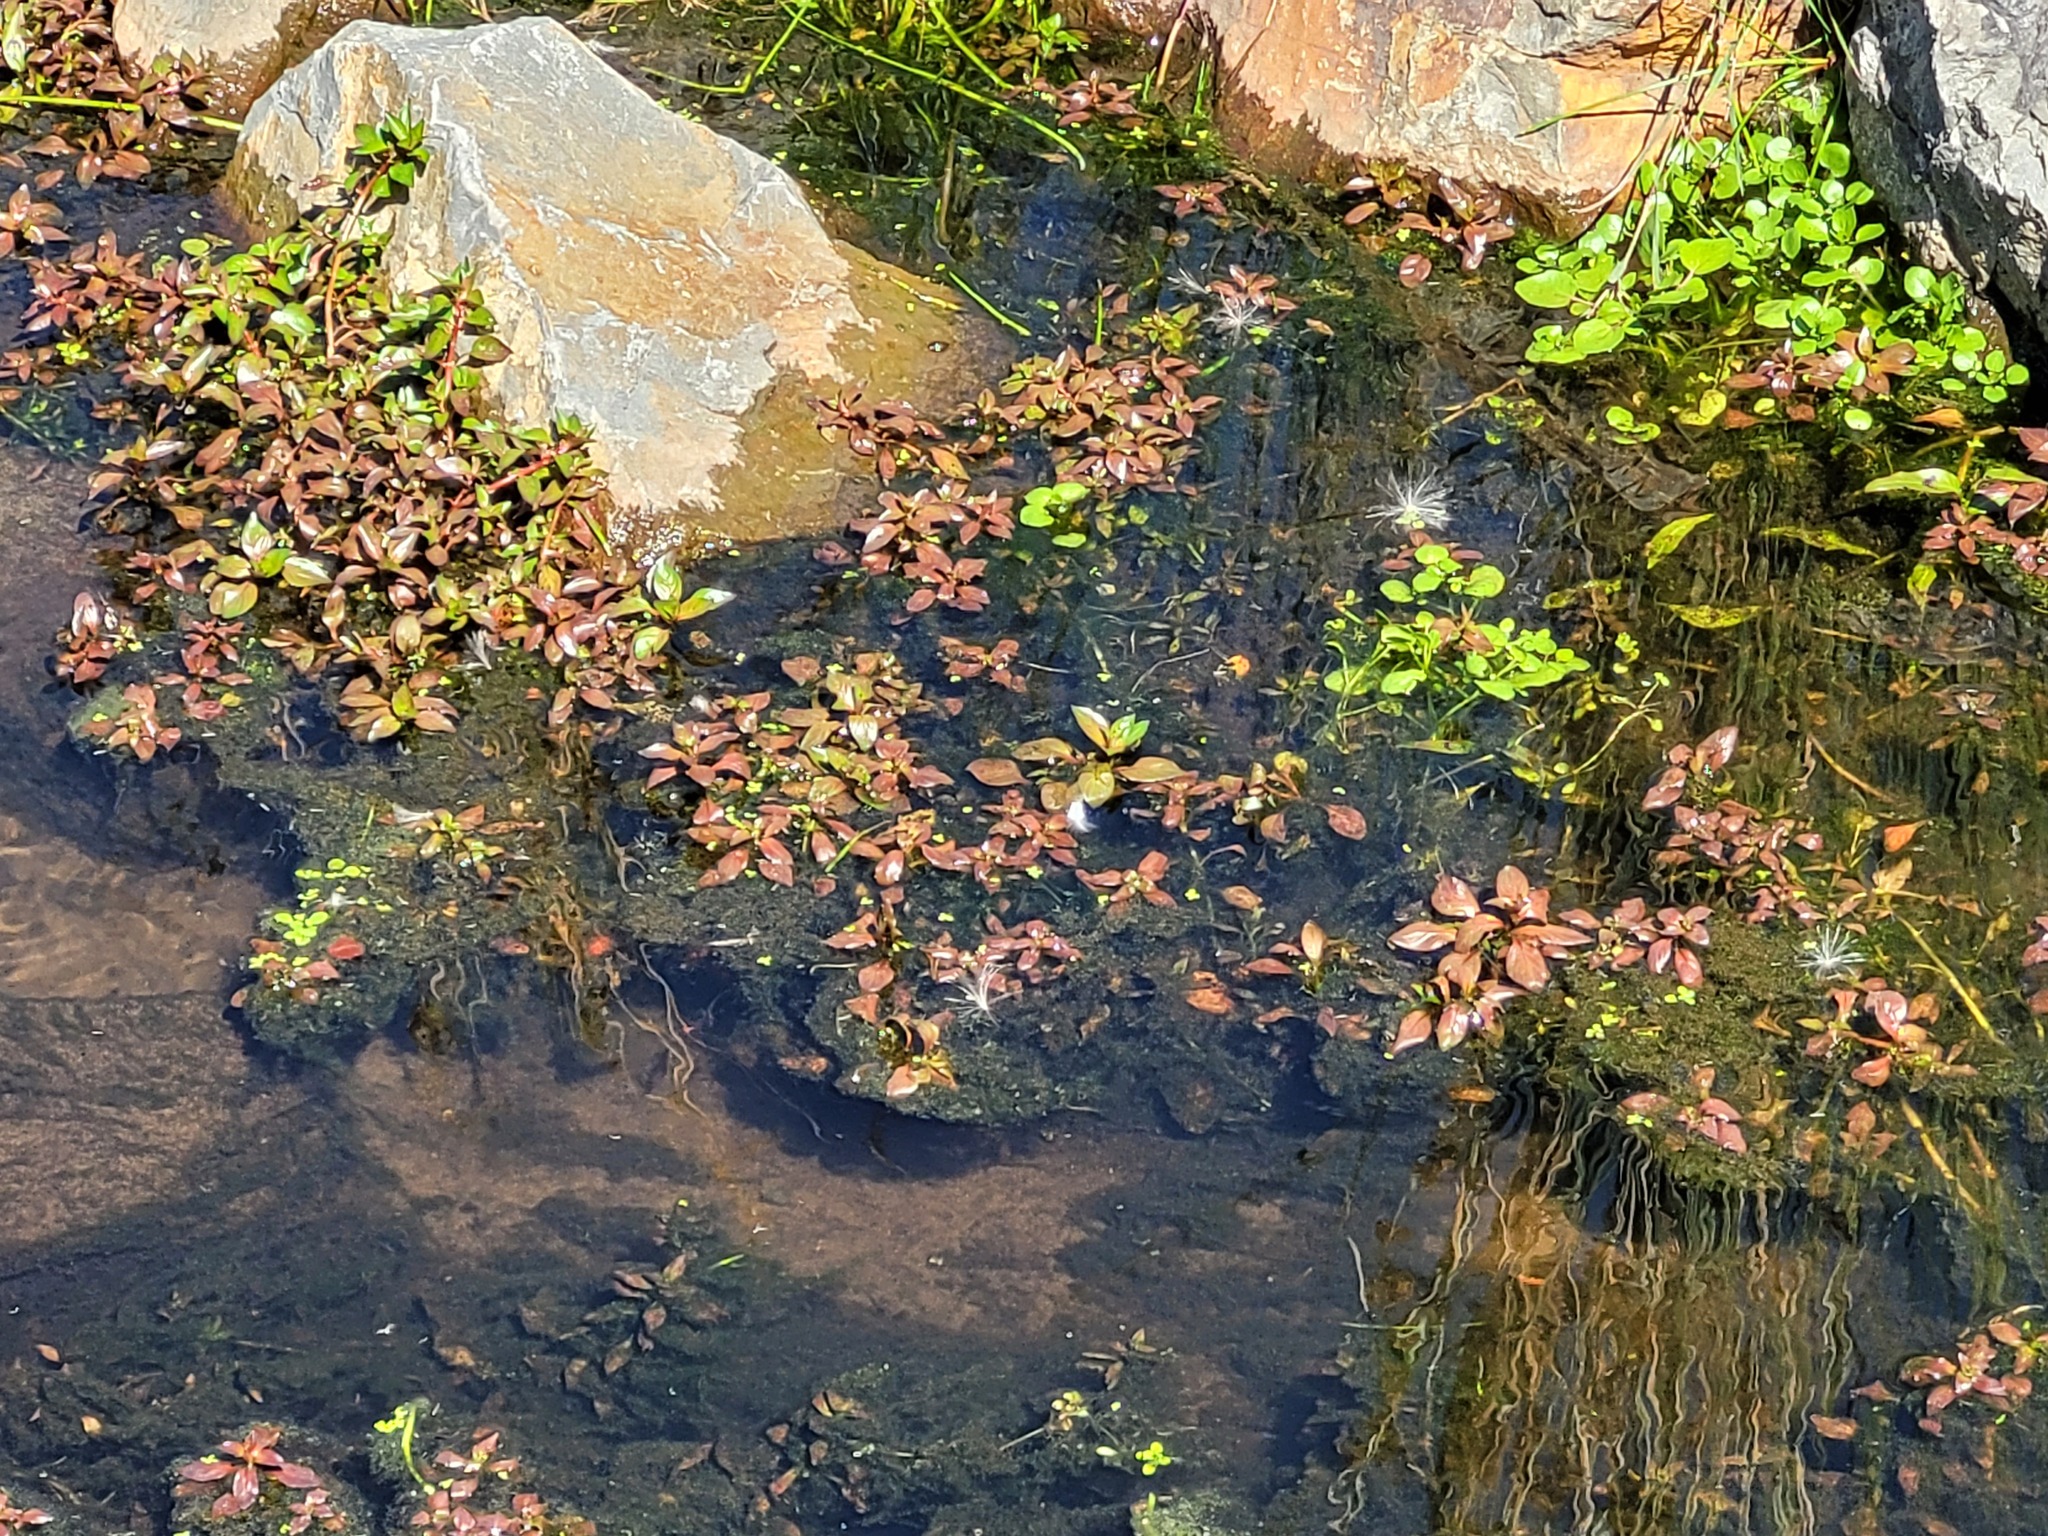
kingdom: Plantae
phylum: Tracheophyta
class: Magnoliopsida
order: Myrtales
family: Onagraceae
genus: Ludwigia
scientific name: Ludwigia palustris
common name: Hampshire-purslane
